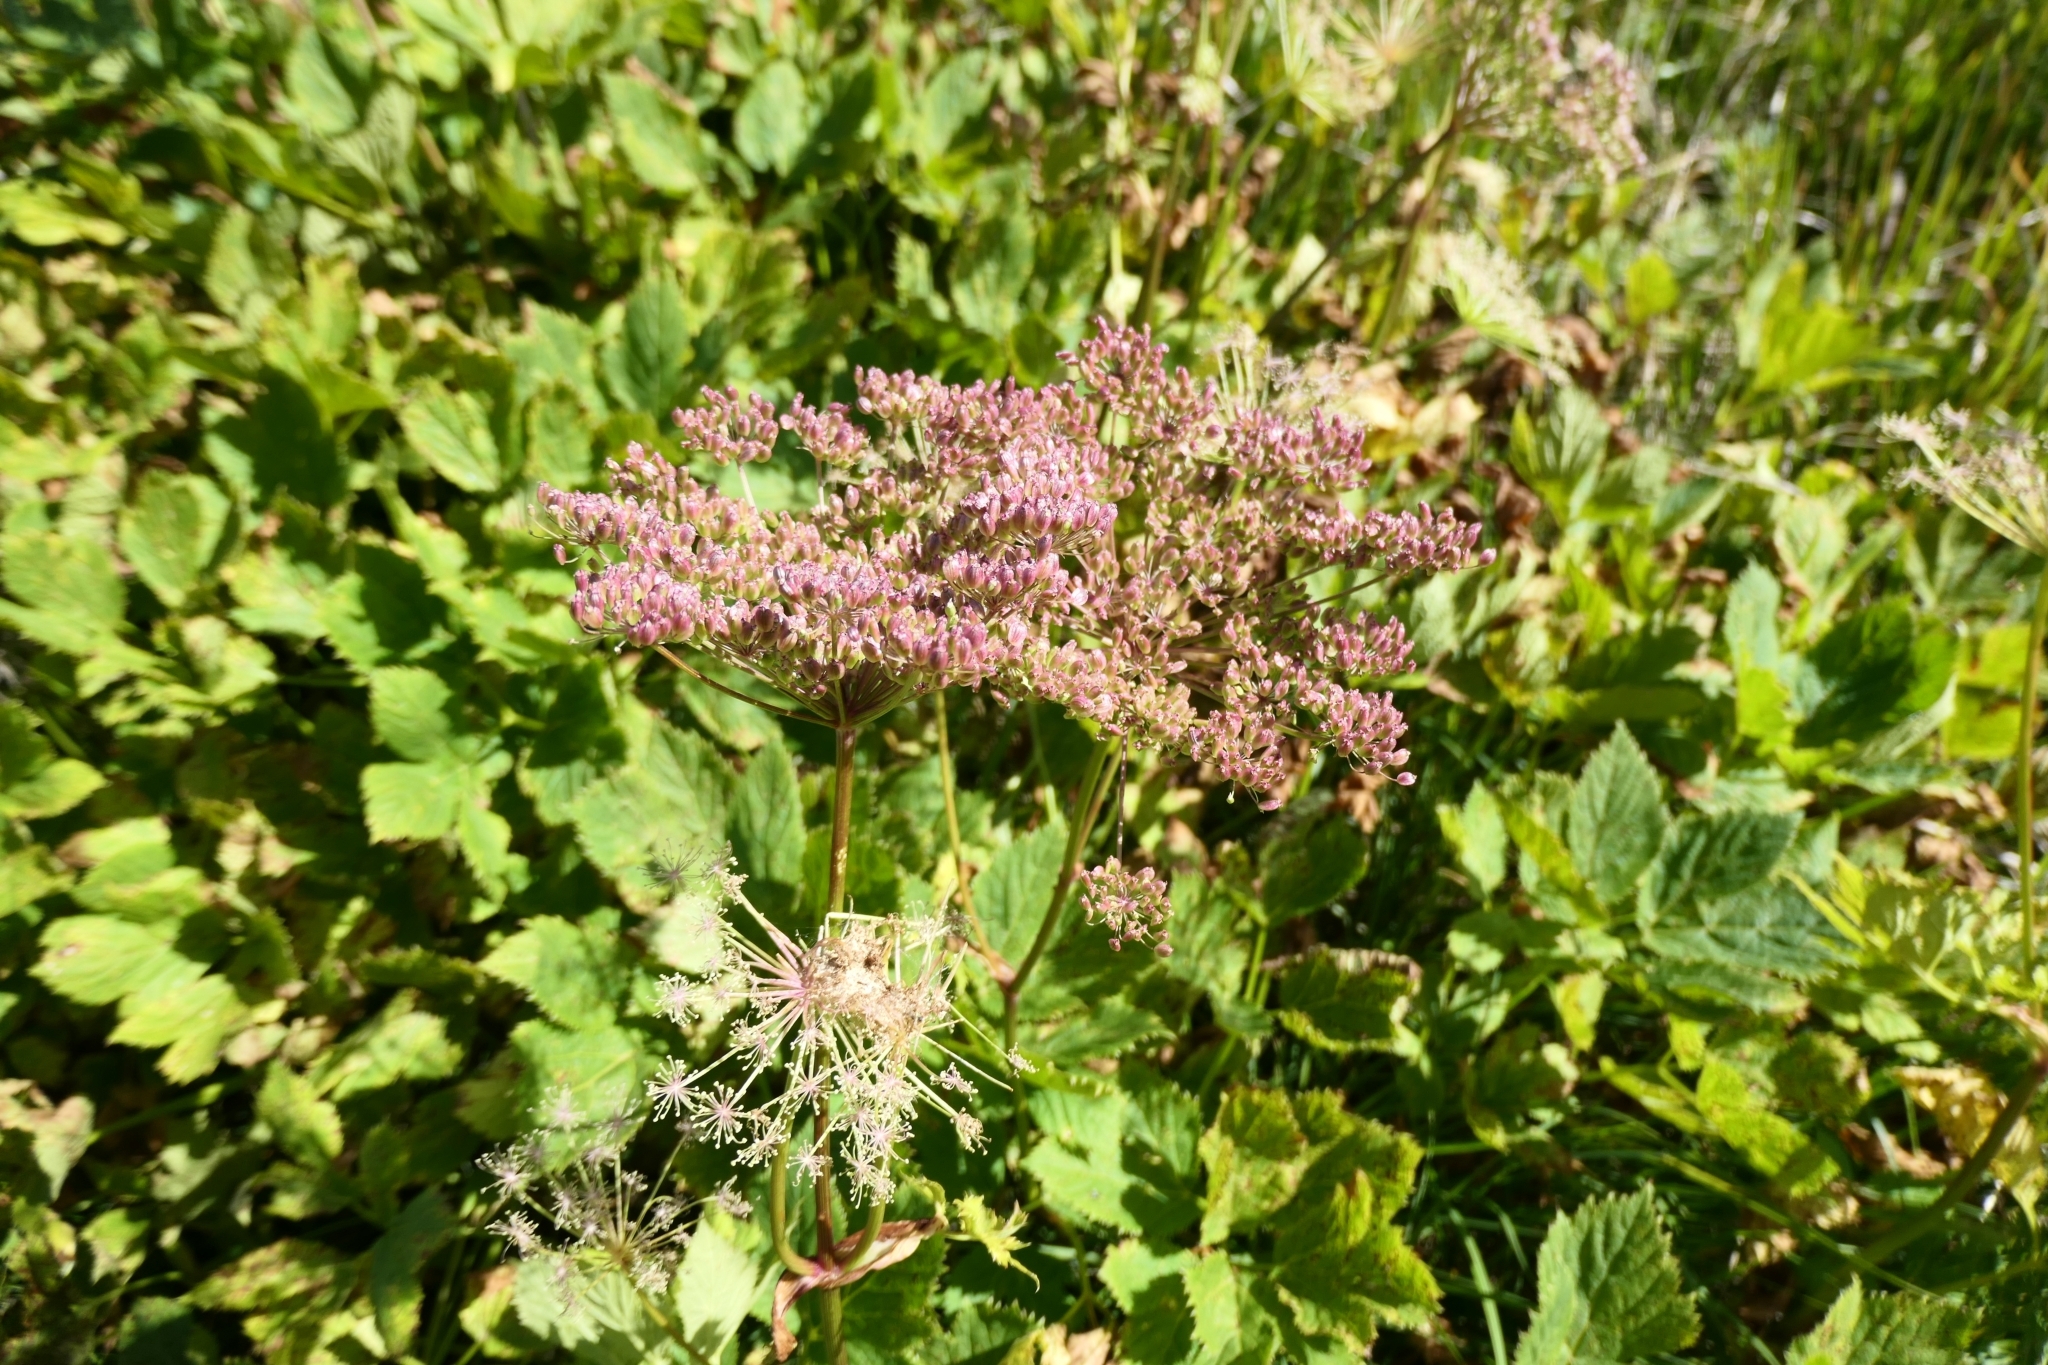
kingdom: Plantae
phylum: Tracheophyta
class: Magnoliopsida
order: Apiales
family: Apiaceae
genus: Imperatoria
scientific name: Imperatoria ostruthium
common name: Masterwort
